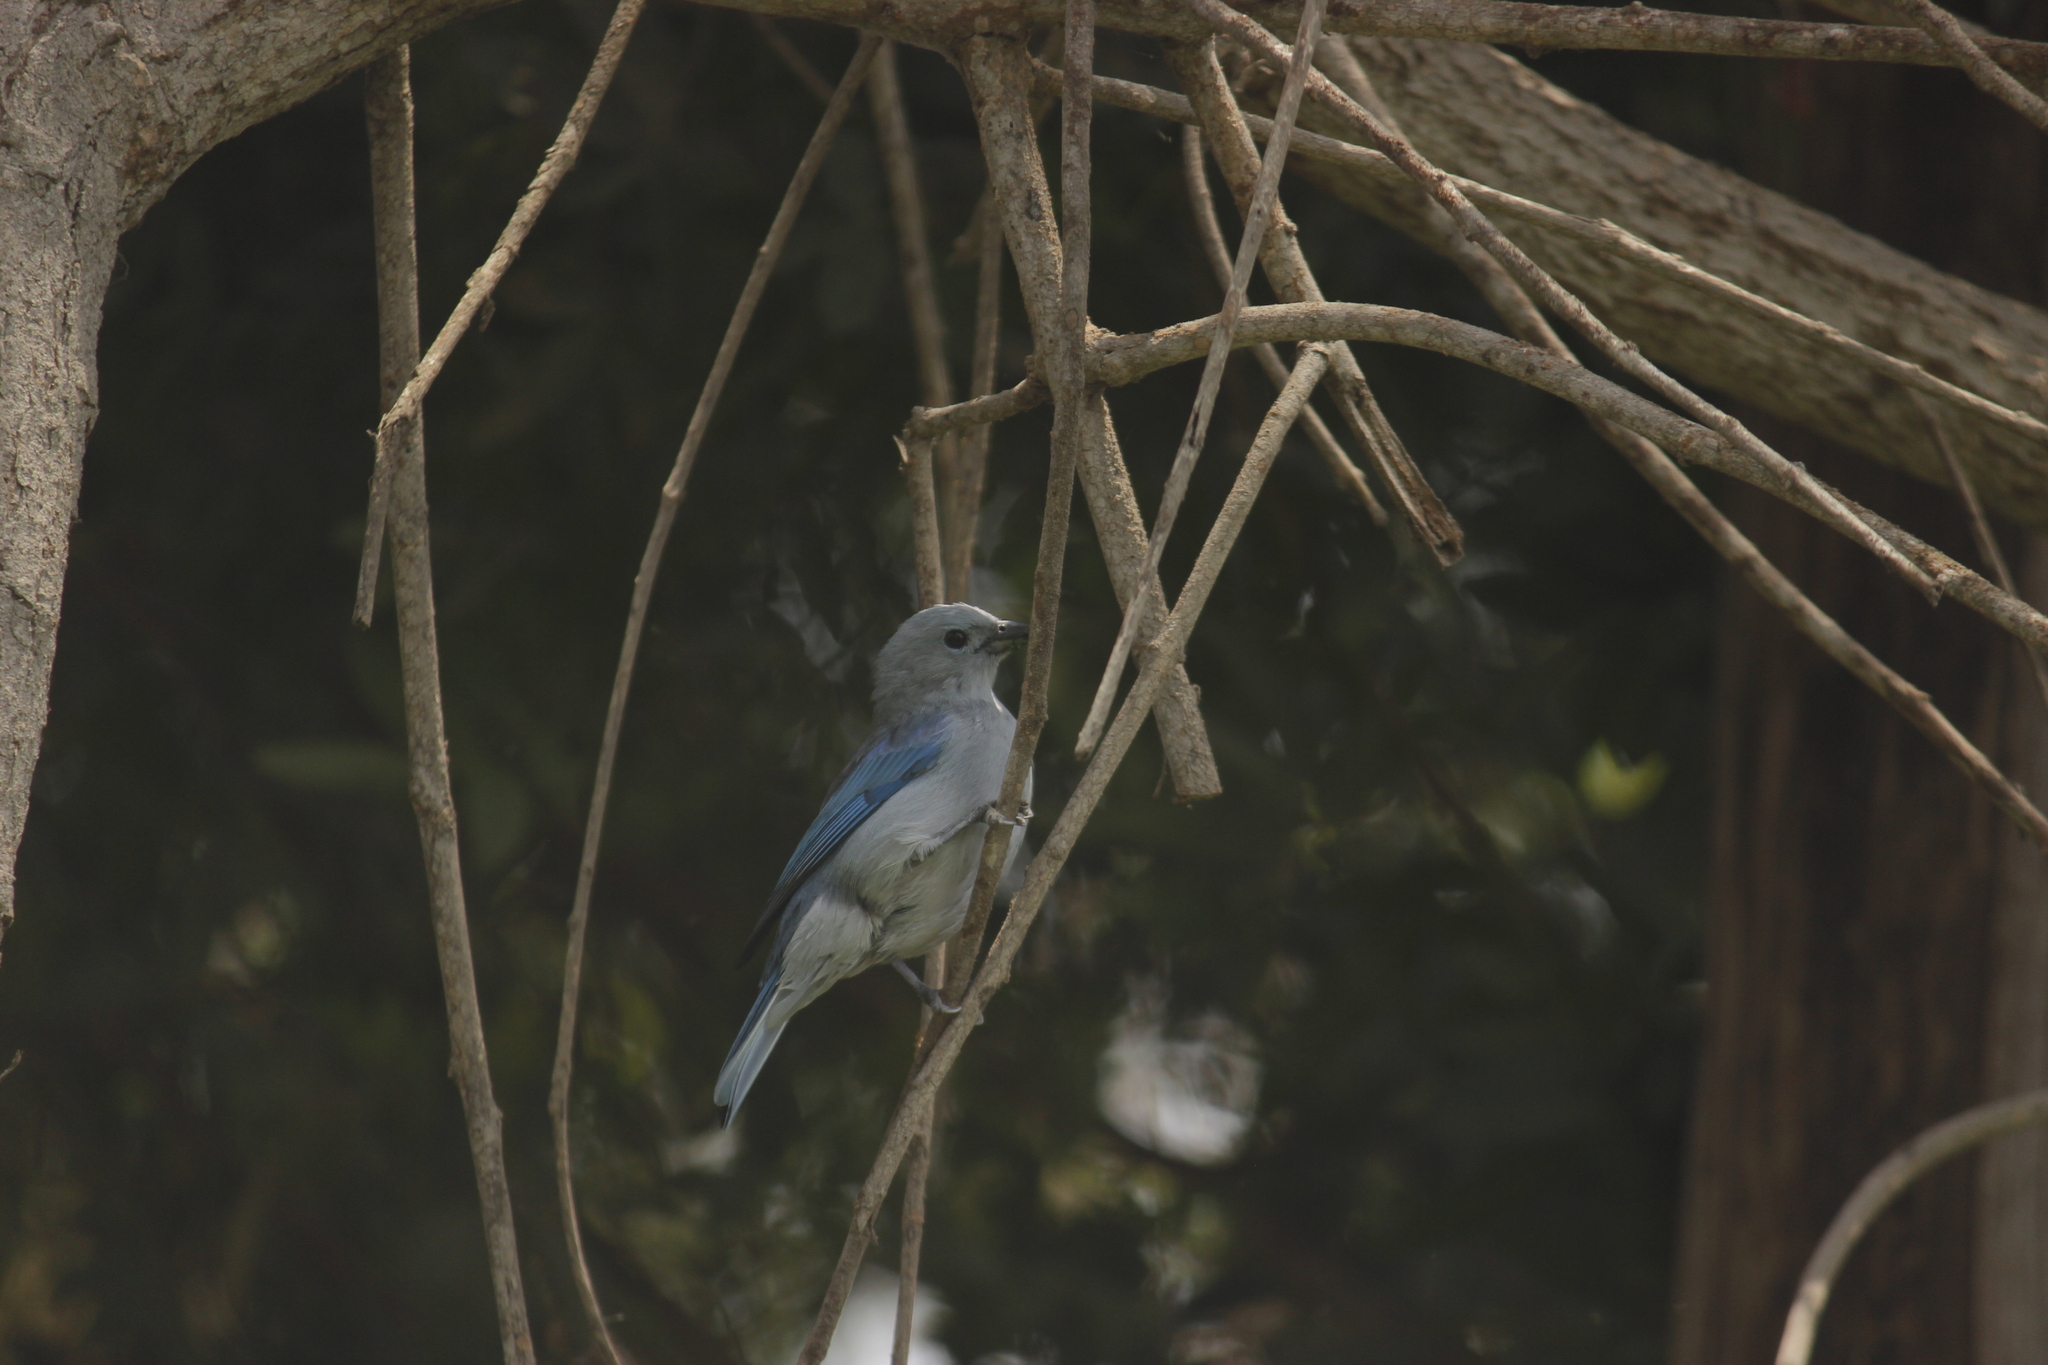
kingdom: Animalia
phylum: Chordata
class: Aves
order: Passeriformes
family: Thraupidae
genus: Thraupis
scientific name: Thraupis episcopus
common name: Blue-grey tanager
